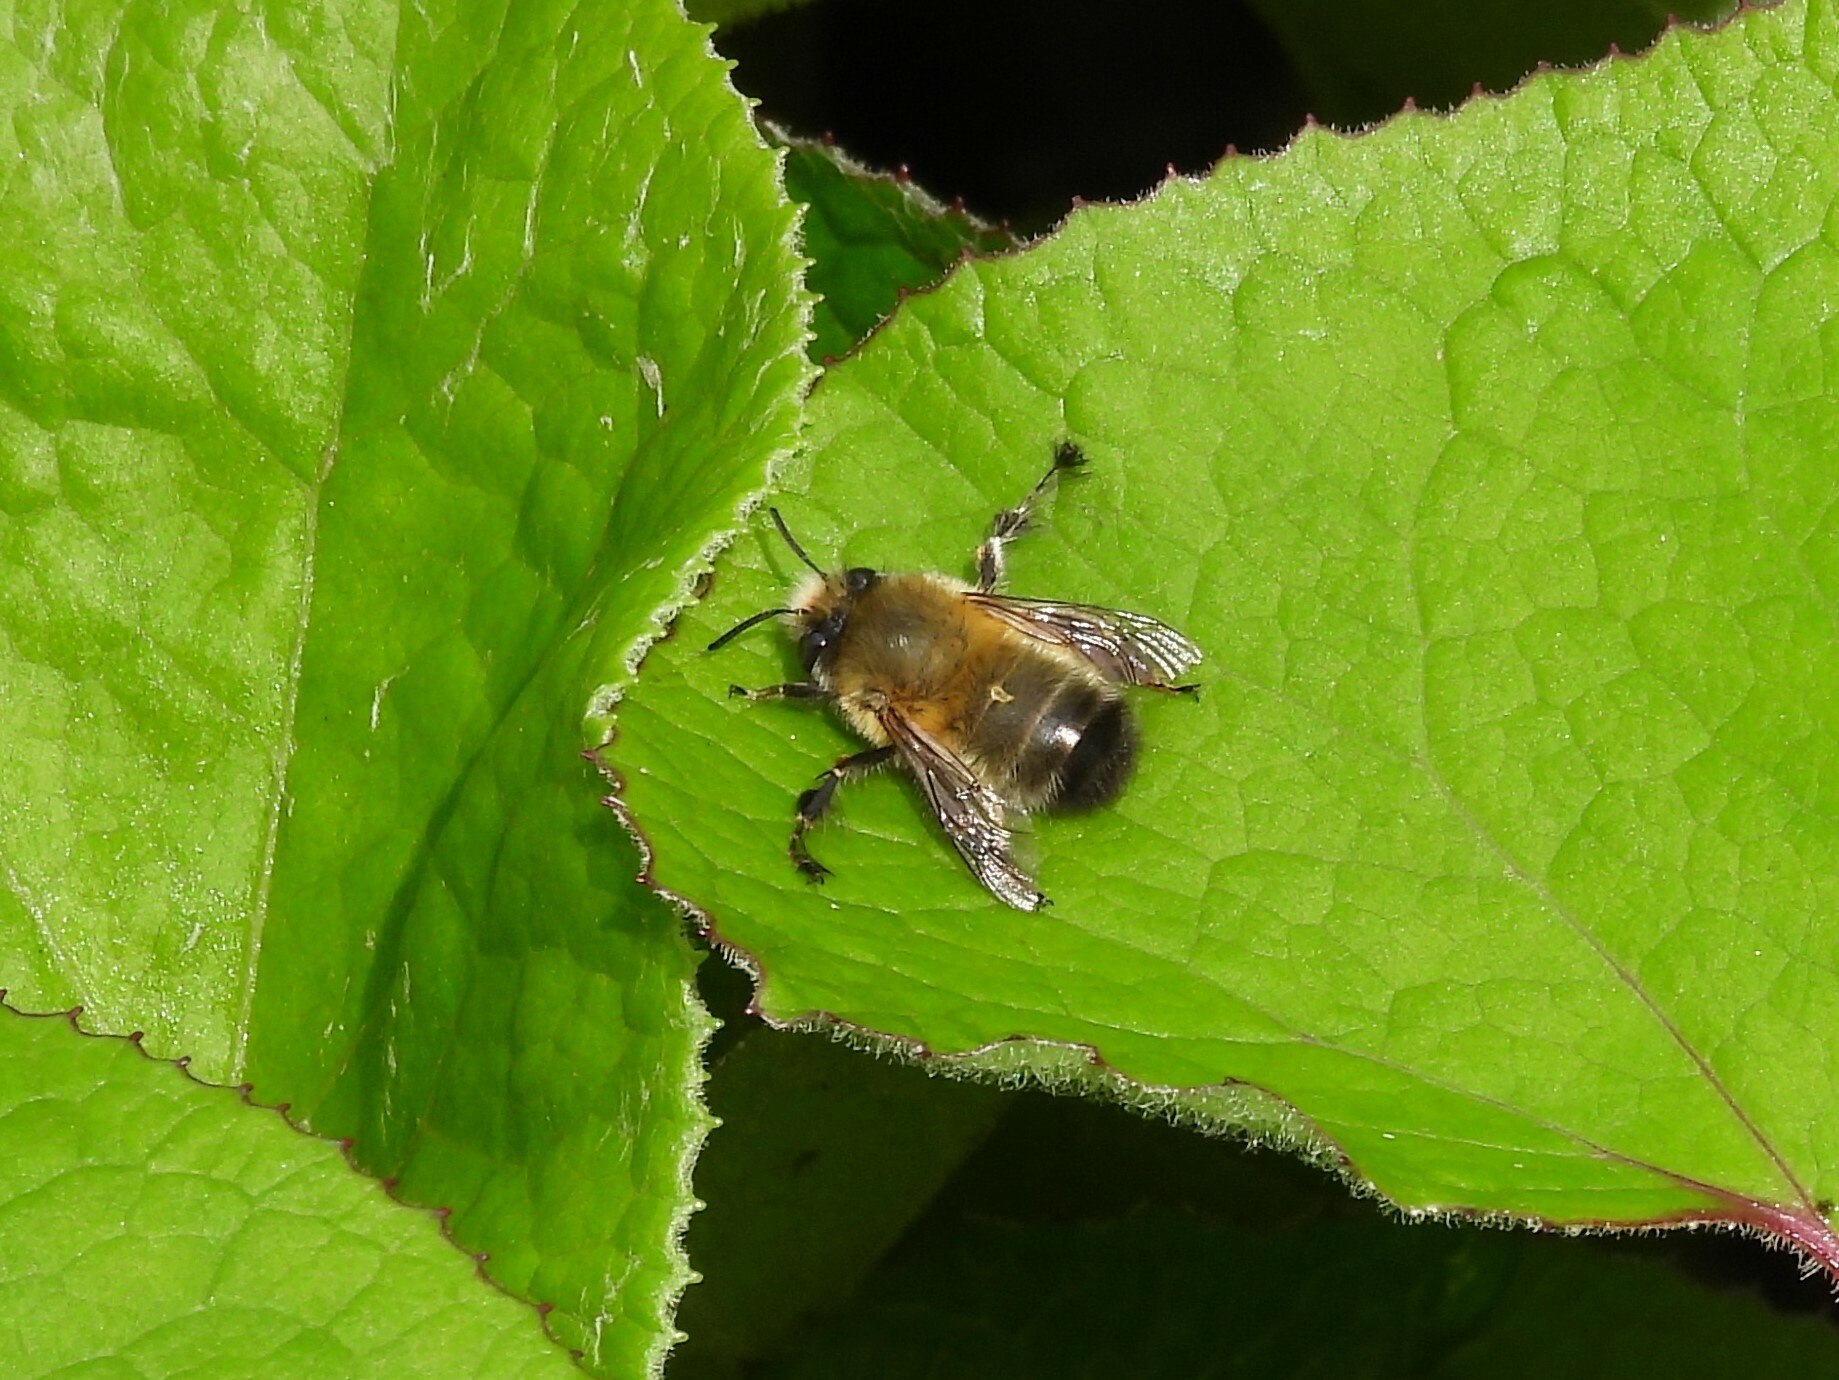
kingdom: Animalia
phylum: Arthropoda
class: Insecta
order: Hymenoptera
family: Apidae
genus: Anthophora
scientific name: Anthophora plumipes
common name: Hairy-footed flower bee
